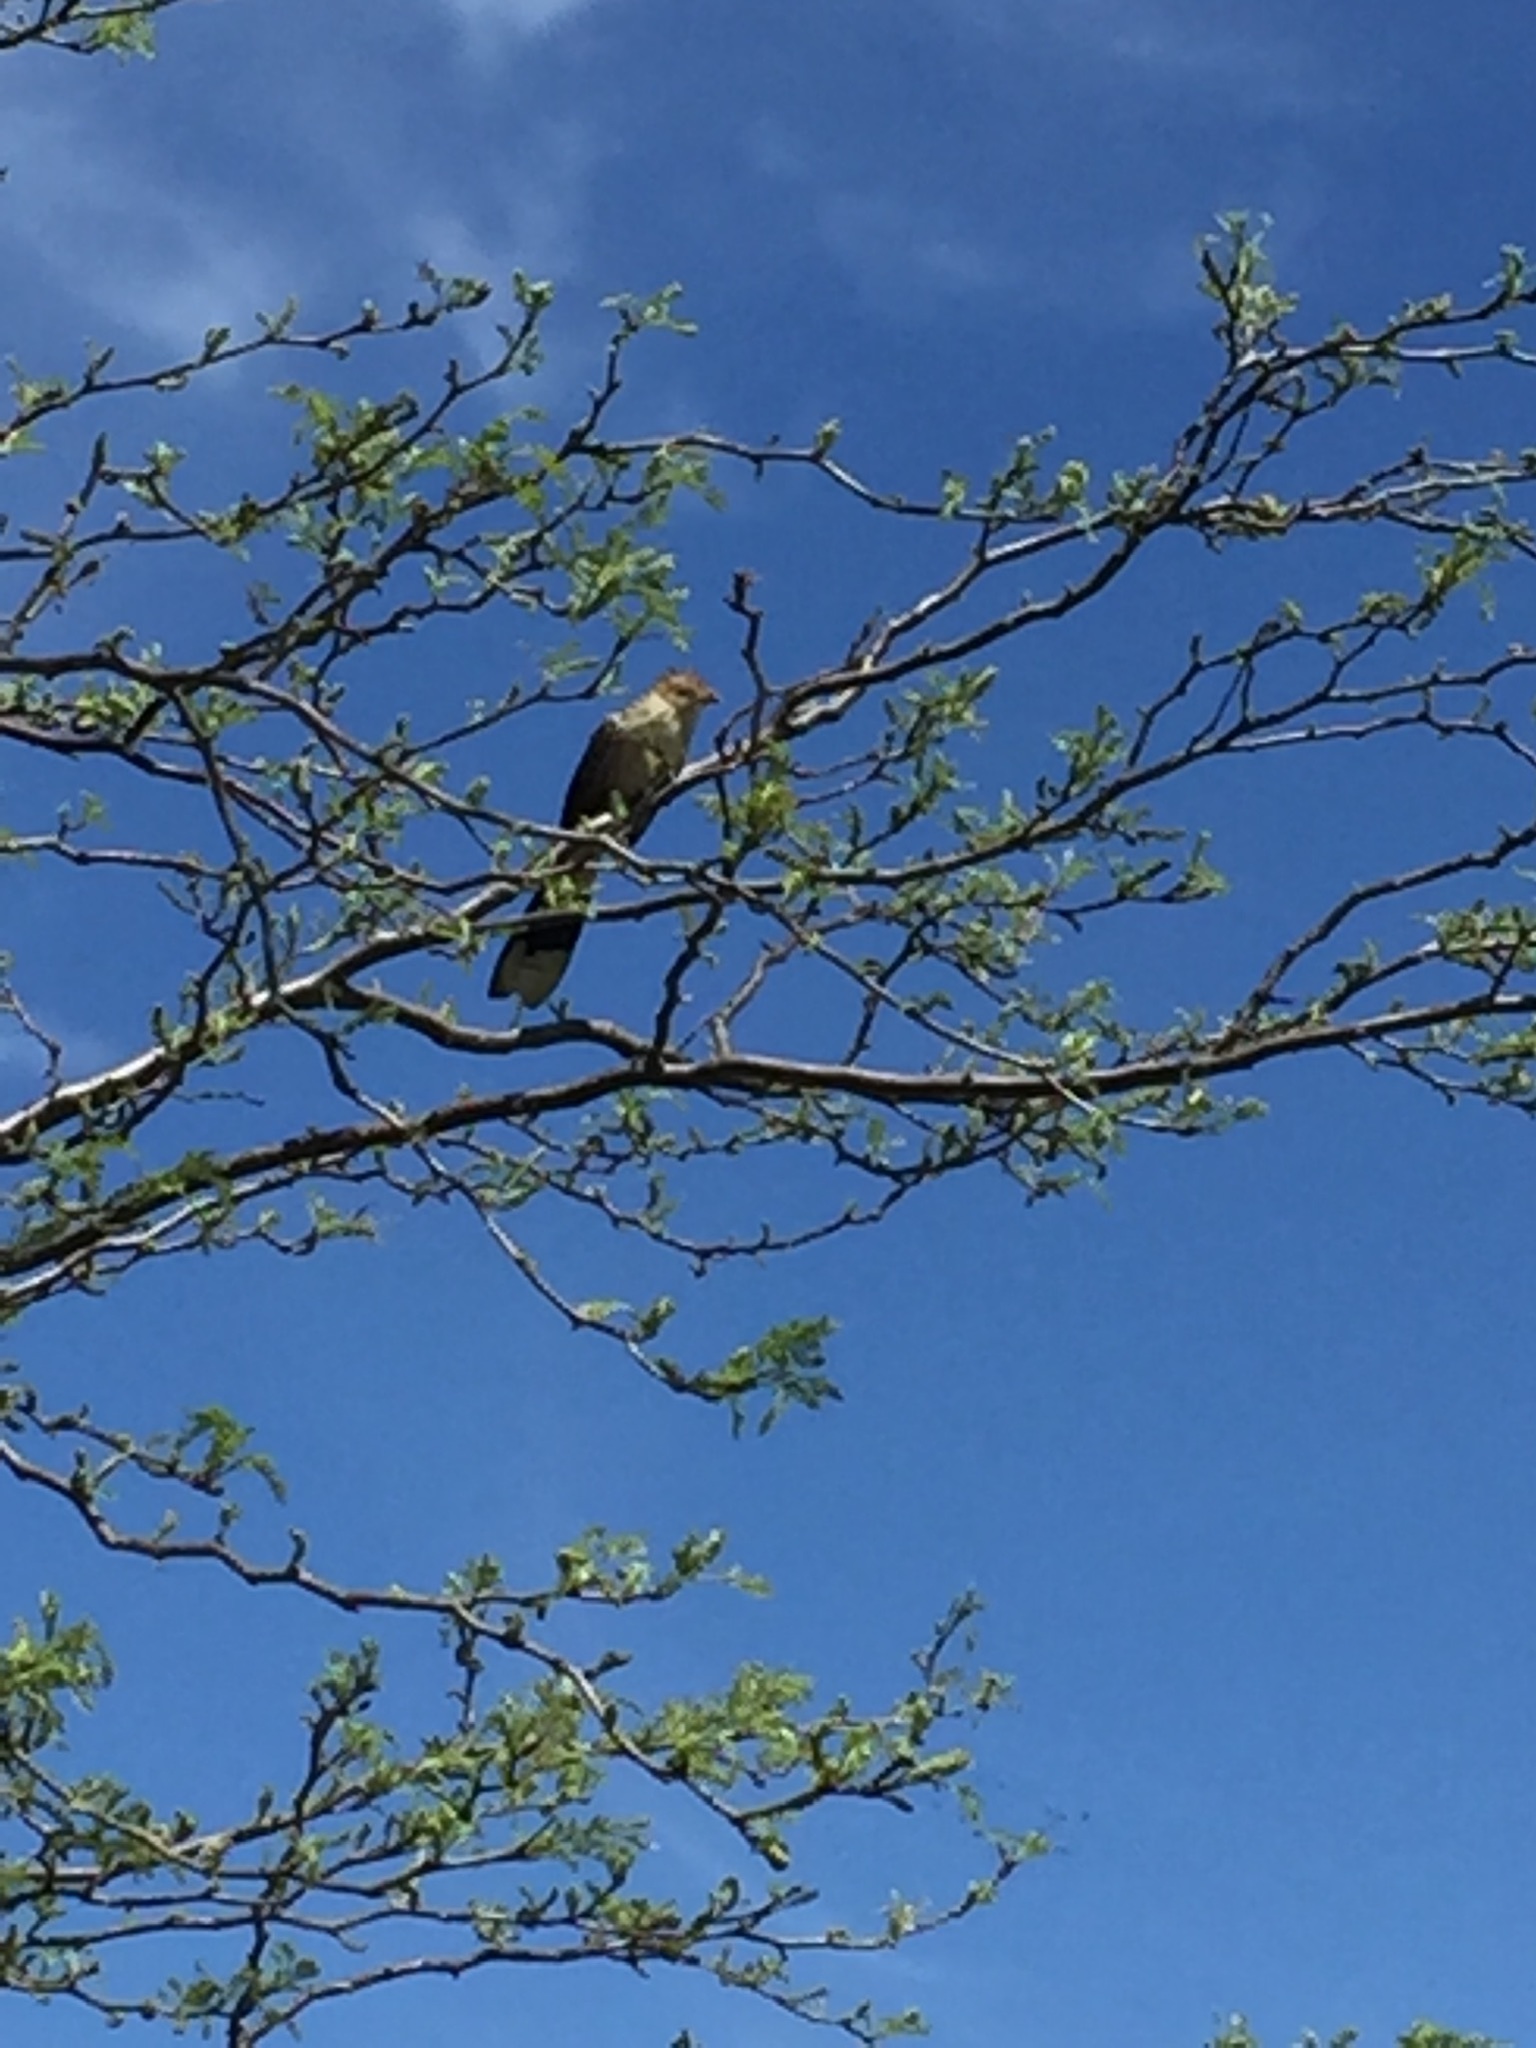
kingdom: Animalia
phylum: Chordata
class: Aves
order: Cuculiformes
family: Cuculidae
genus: Guira
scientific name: Guira guira
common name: Guira cuckoo
